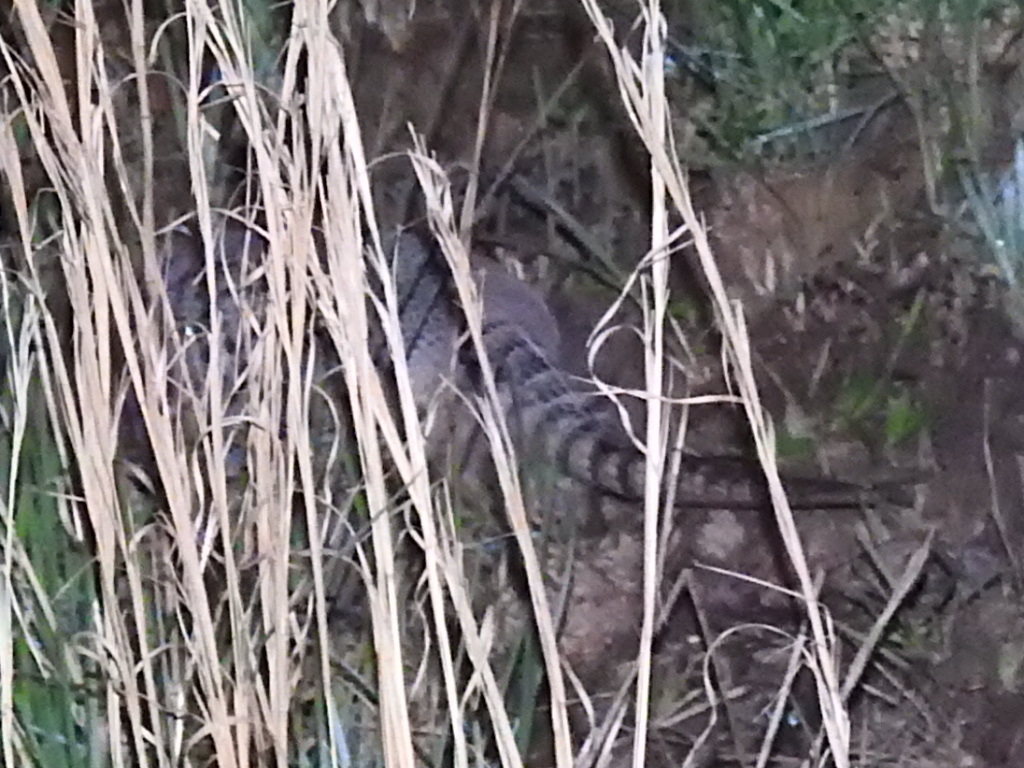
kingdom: Animalia
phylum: Chordata
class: Mammalia
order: Cingulata
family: Dasypodidae
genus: Dasypus
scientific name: Dasypus novemcinctus
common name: Nine-banded armadillo
